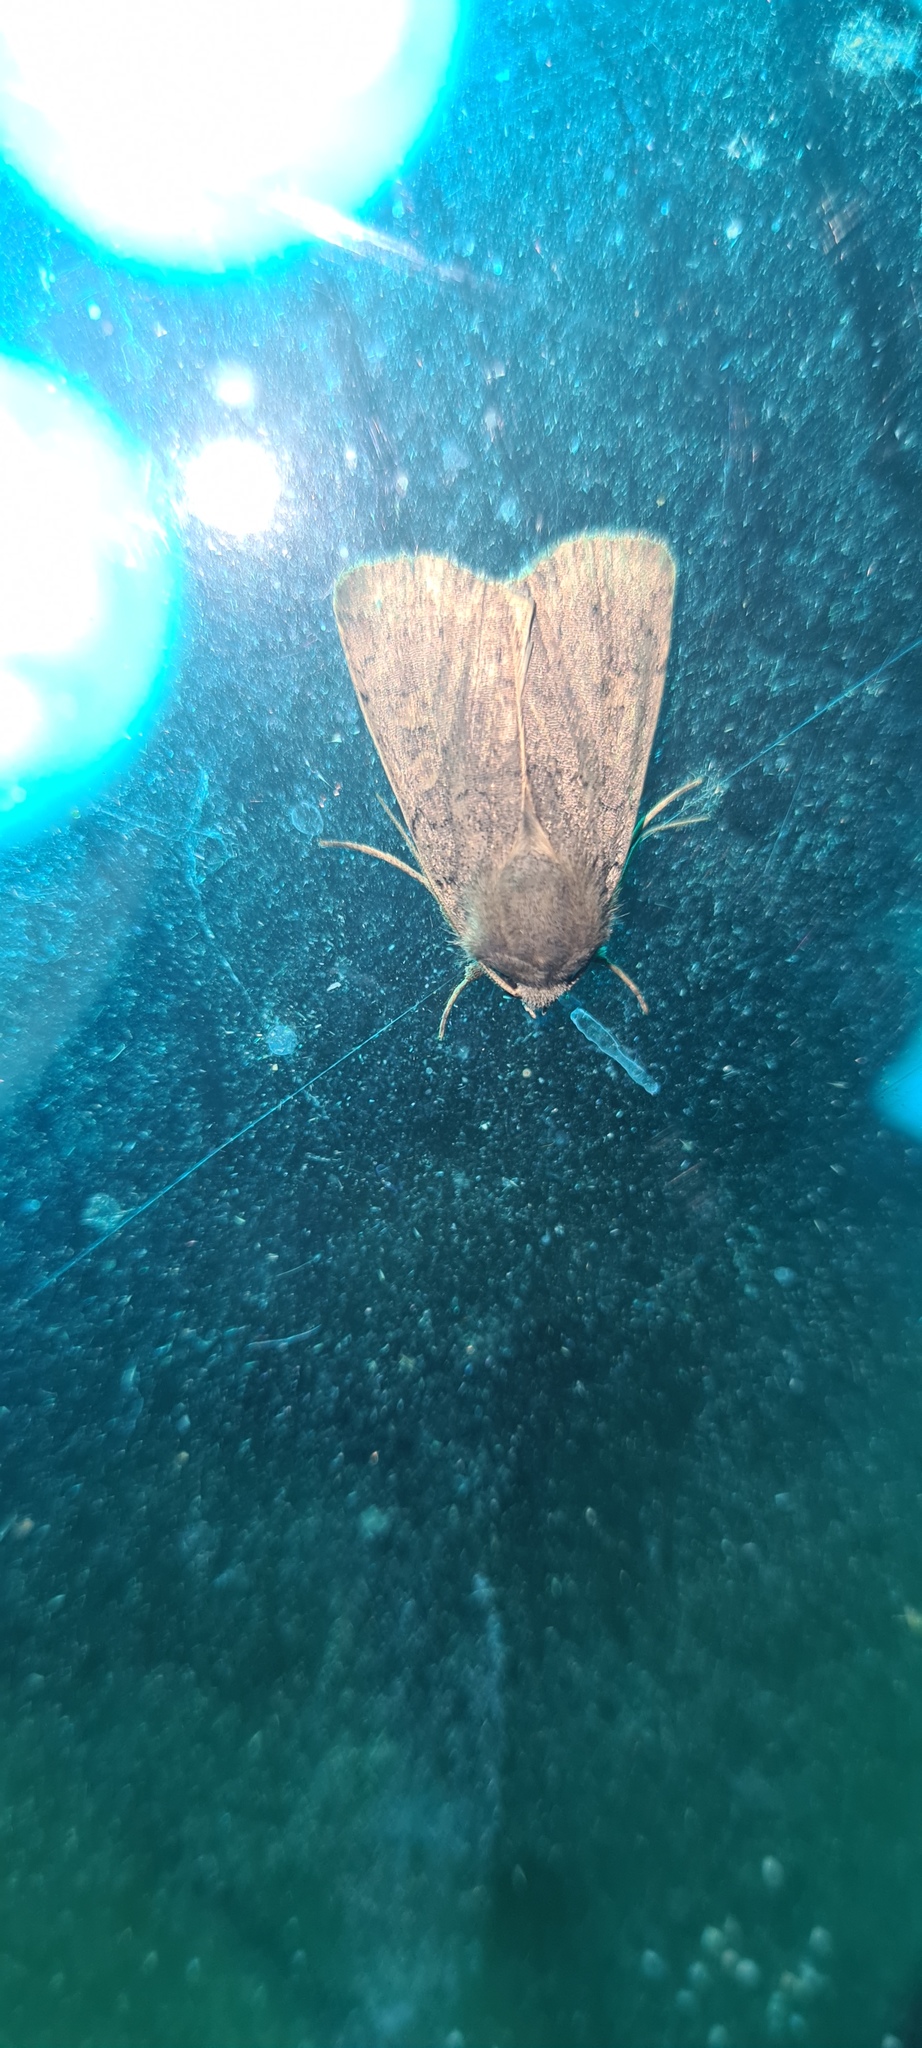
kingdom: Animalia
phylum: Arthropoda
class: Insecta
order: Lepidoptera
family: Noctuidae
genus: Xestia
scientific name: Xestia xanthographa
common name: Square-spot rustic
